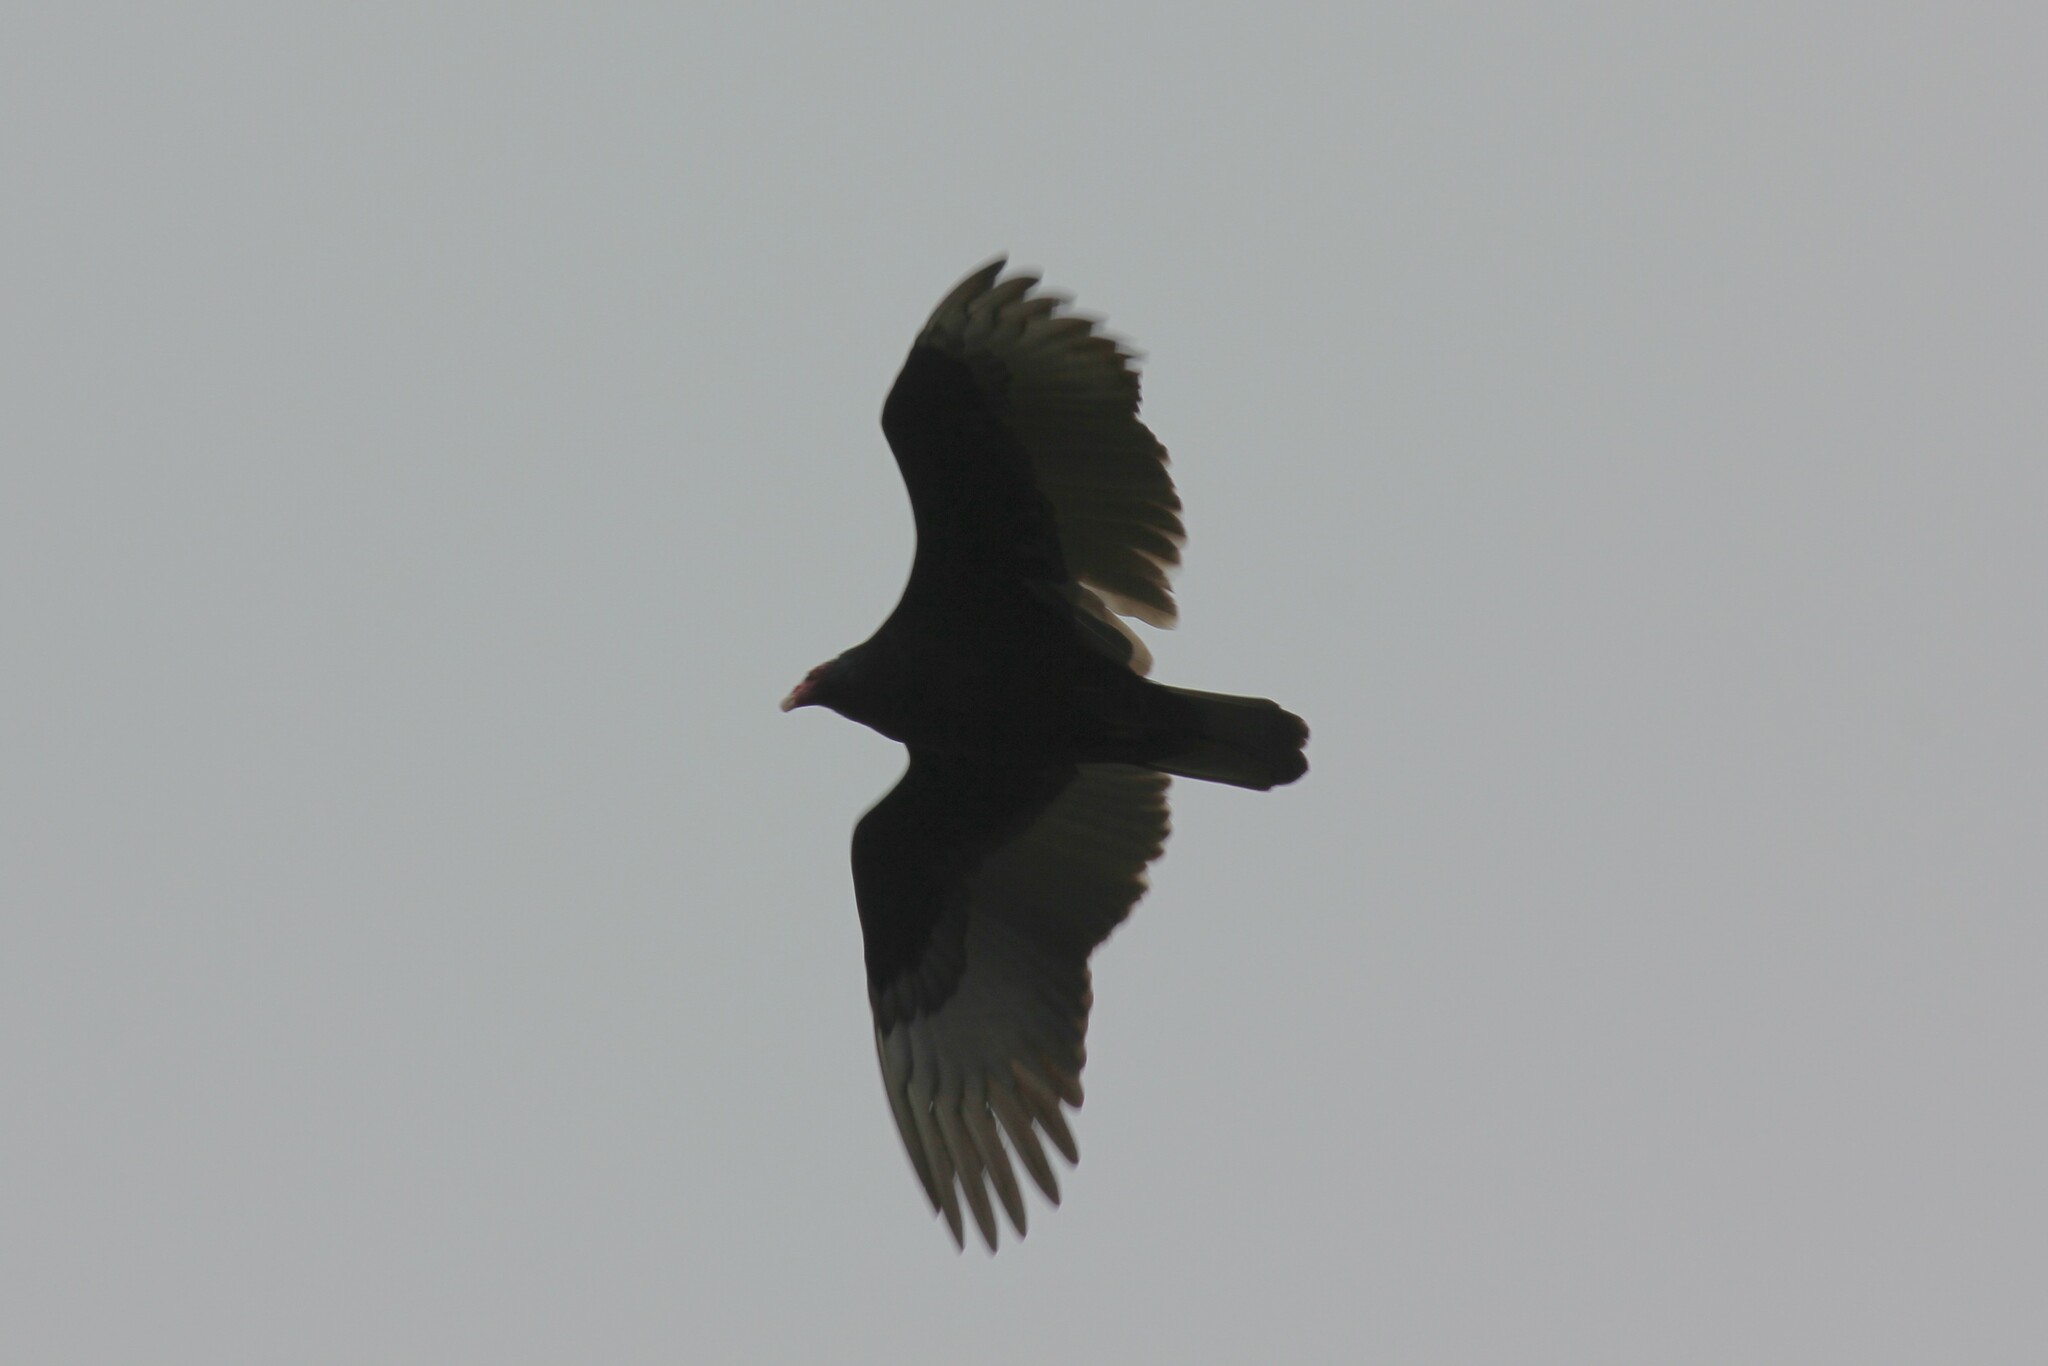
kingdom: Animalia
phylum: Chordata
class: Aves
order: Accipitriformes
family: Cathartidae
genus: Cathartes
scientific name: Cathartes aura
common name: Turkey vulture
